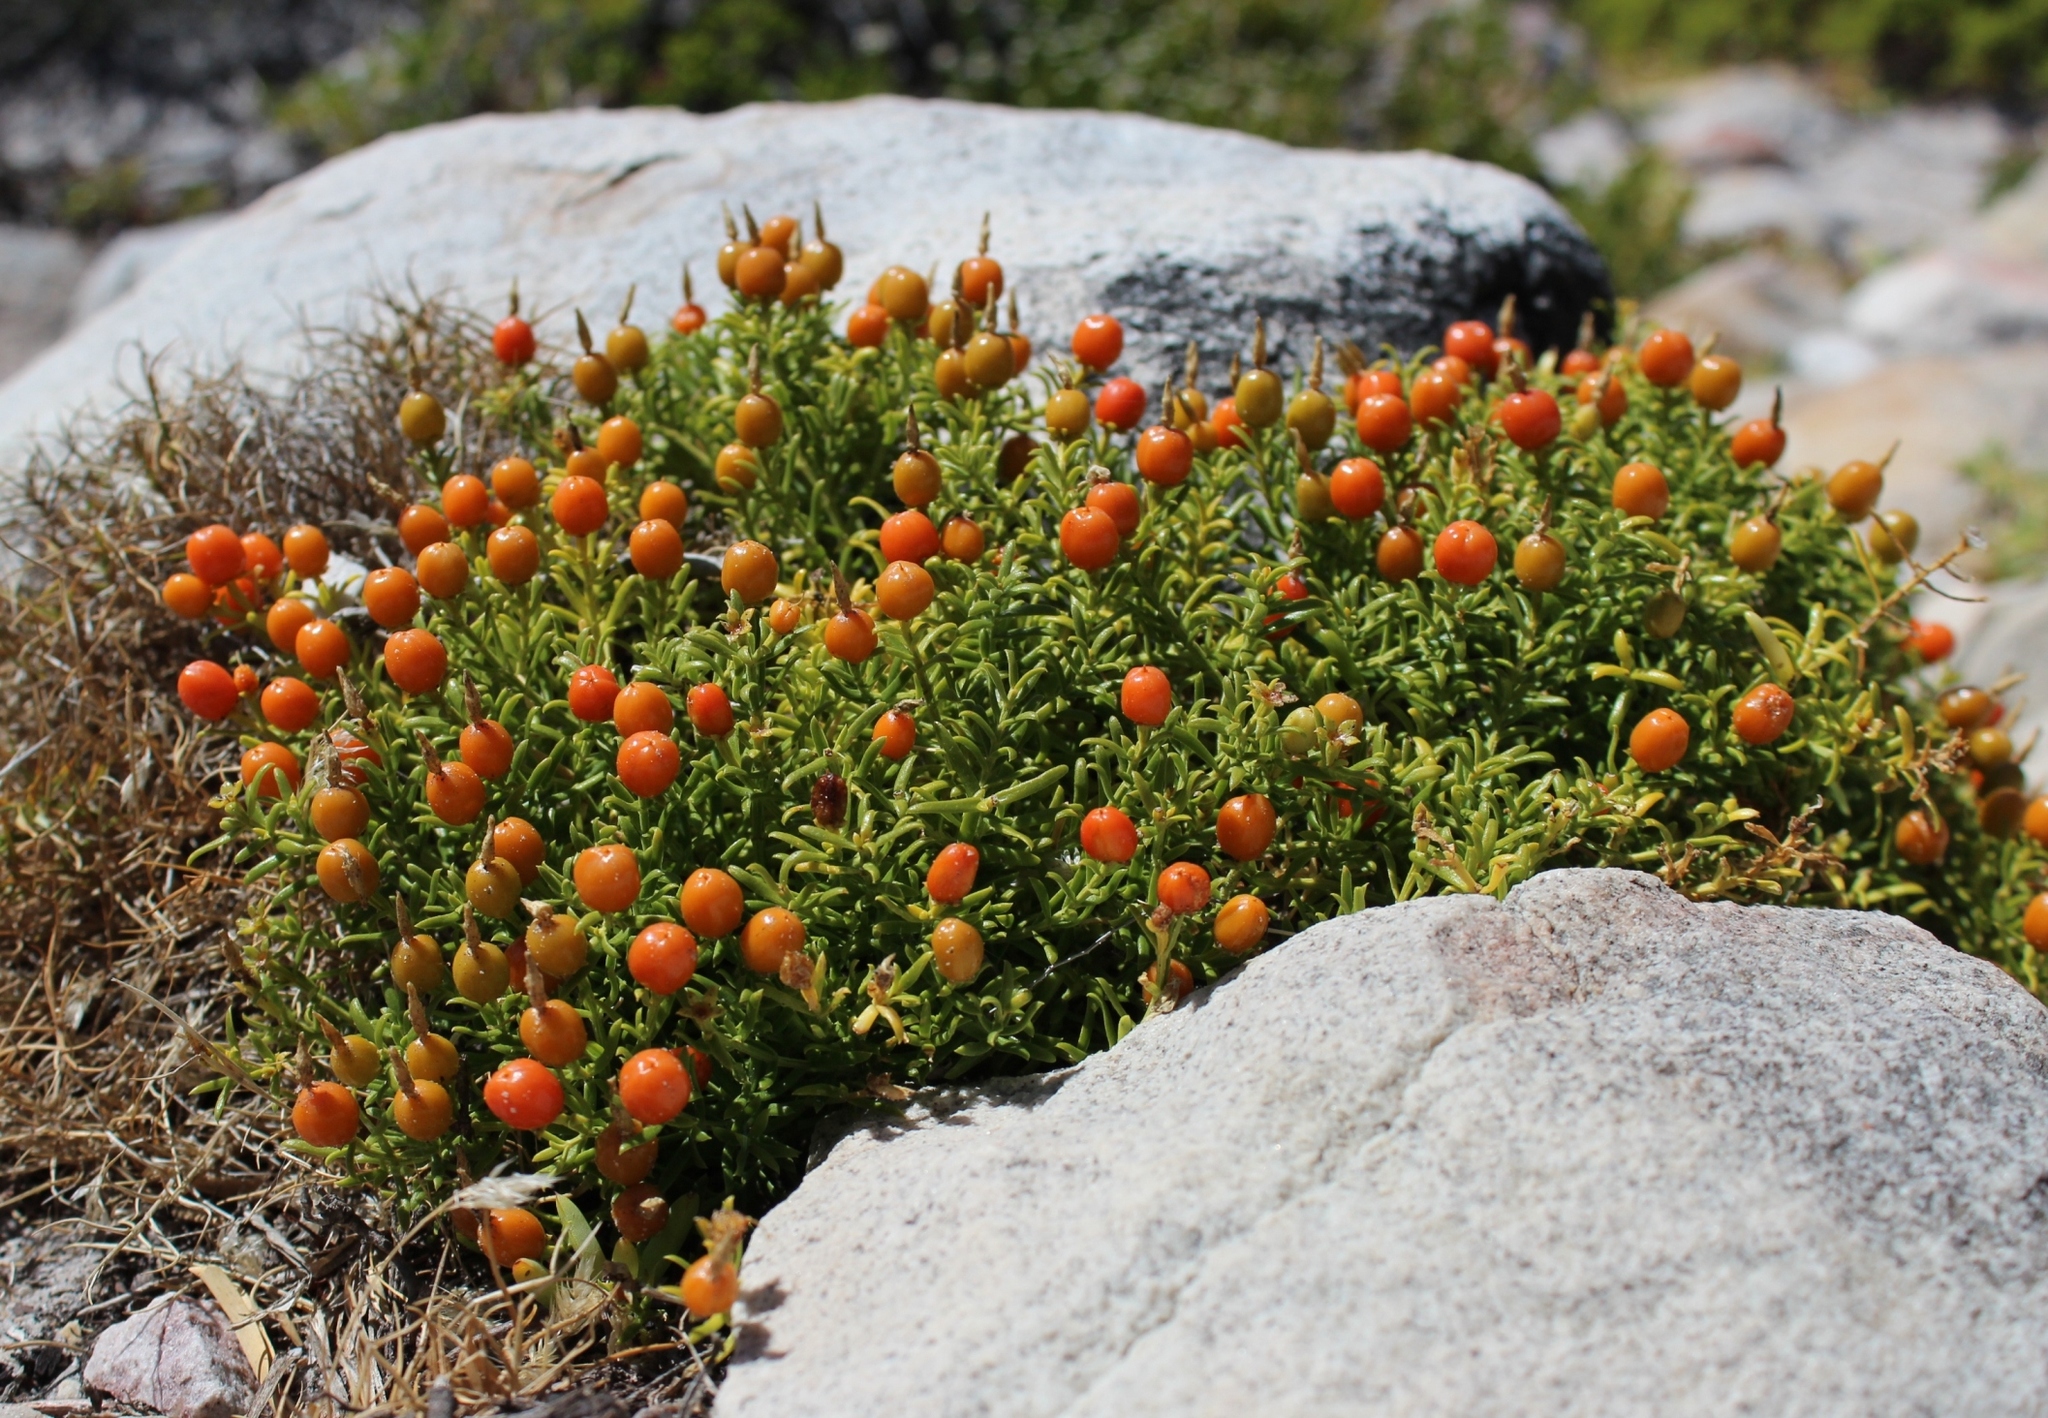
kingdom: Plantae
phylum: Tracheophyta
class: Magnoliopsida
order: Gentianales
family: Gentianaceae
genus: Chironia
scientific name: Chironia baccifera
